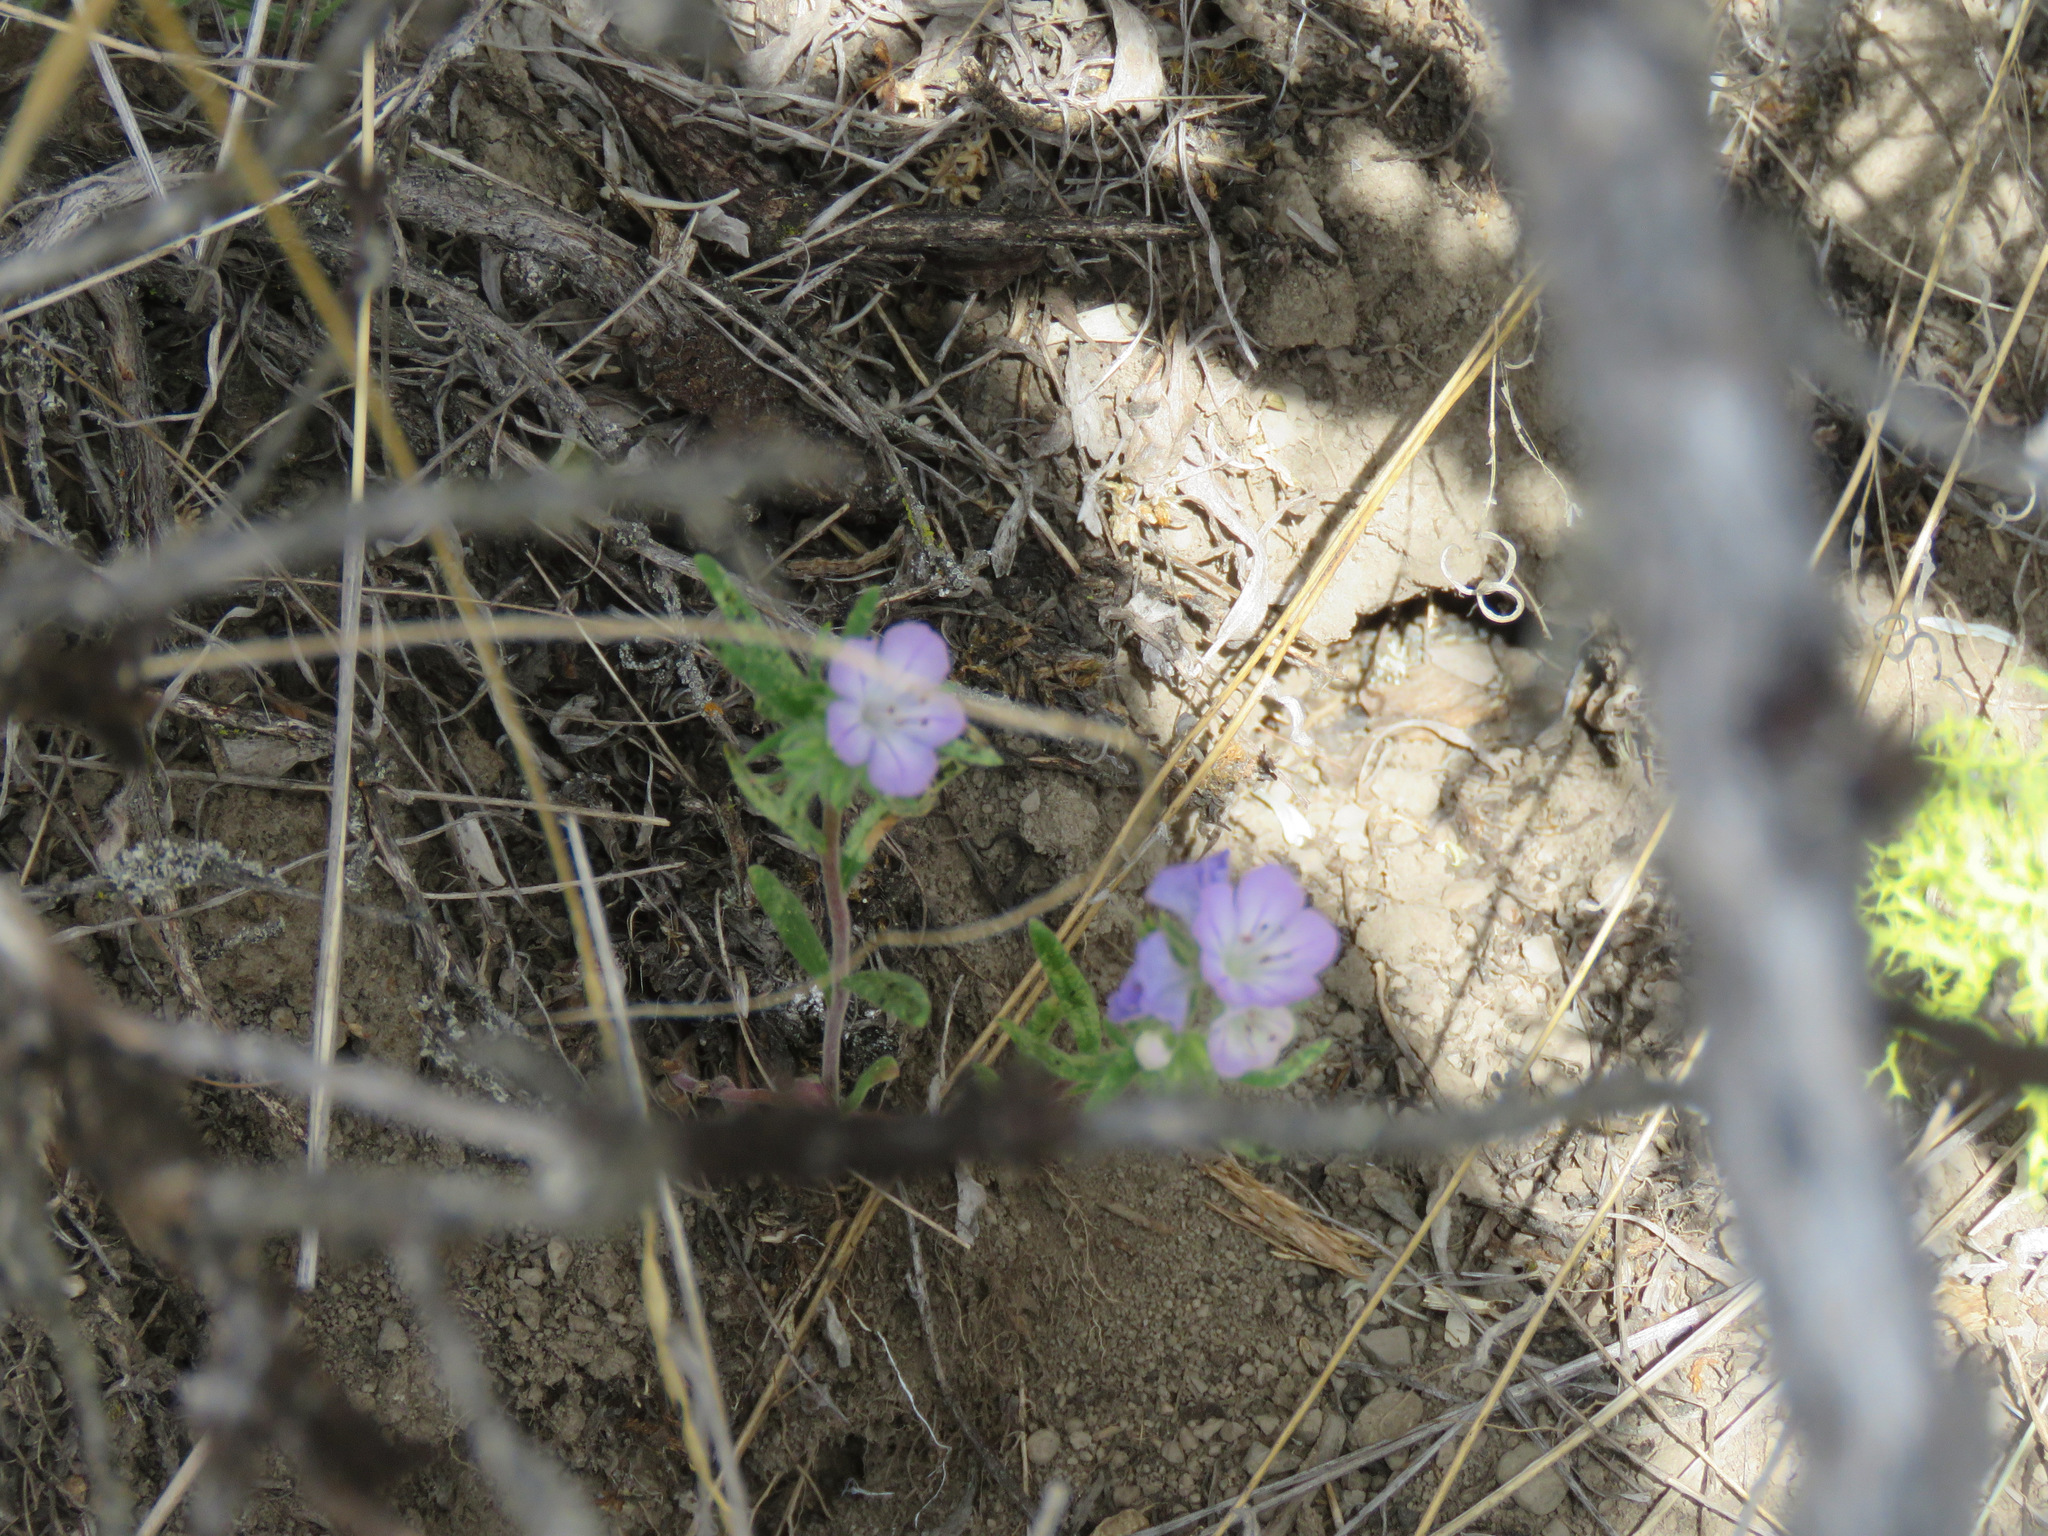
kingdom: Plantae
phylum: Tracheophyta
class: Magnoliopsida
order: Boraginales
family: Hydrophyllaceae
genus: Phacelia
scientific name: Phacelia linearis
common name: Linear-leaved phacelia
